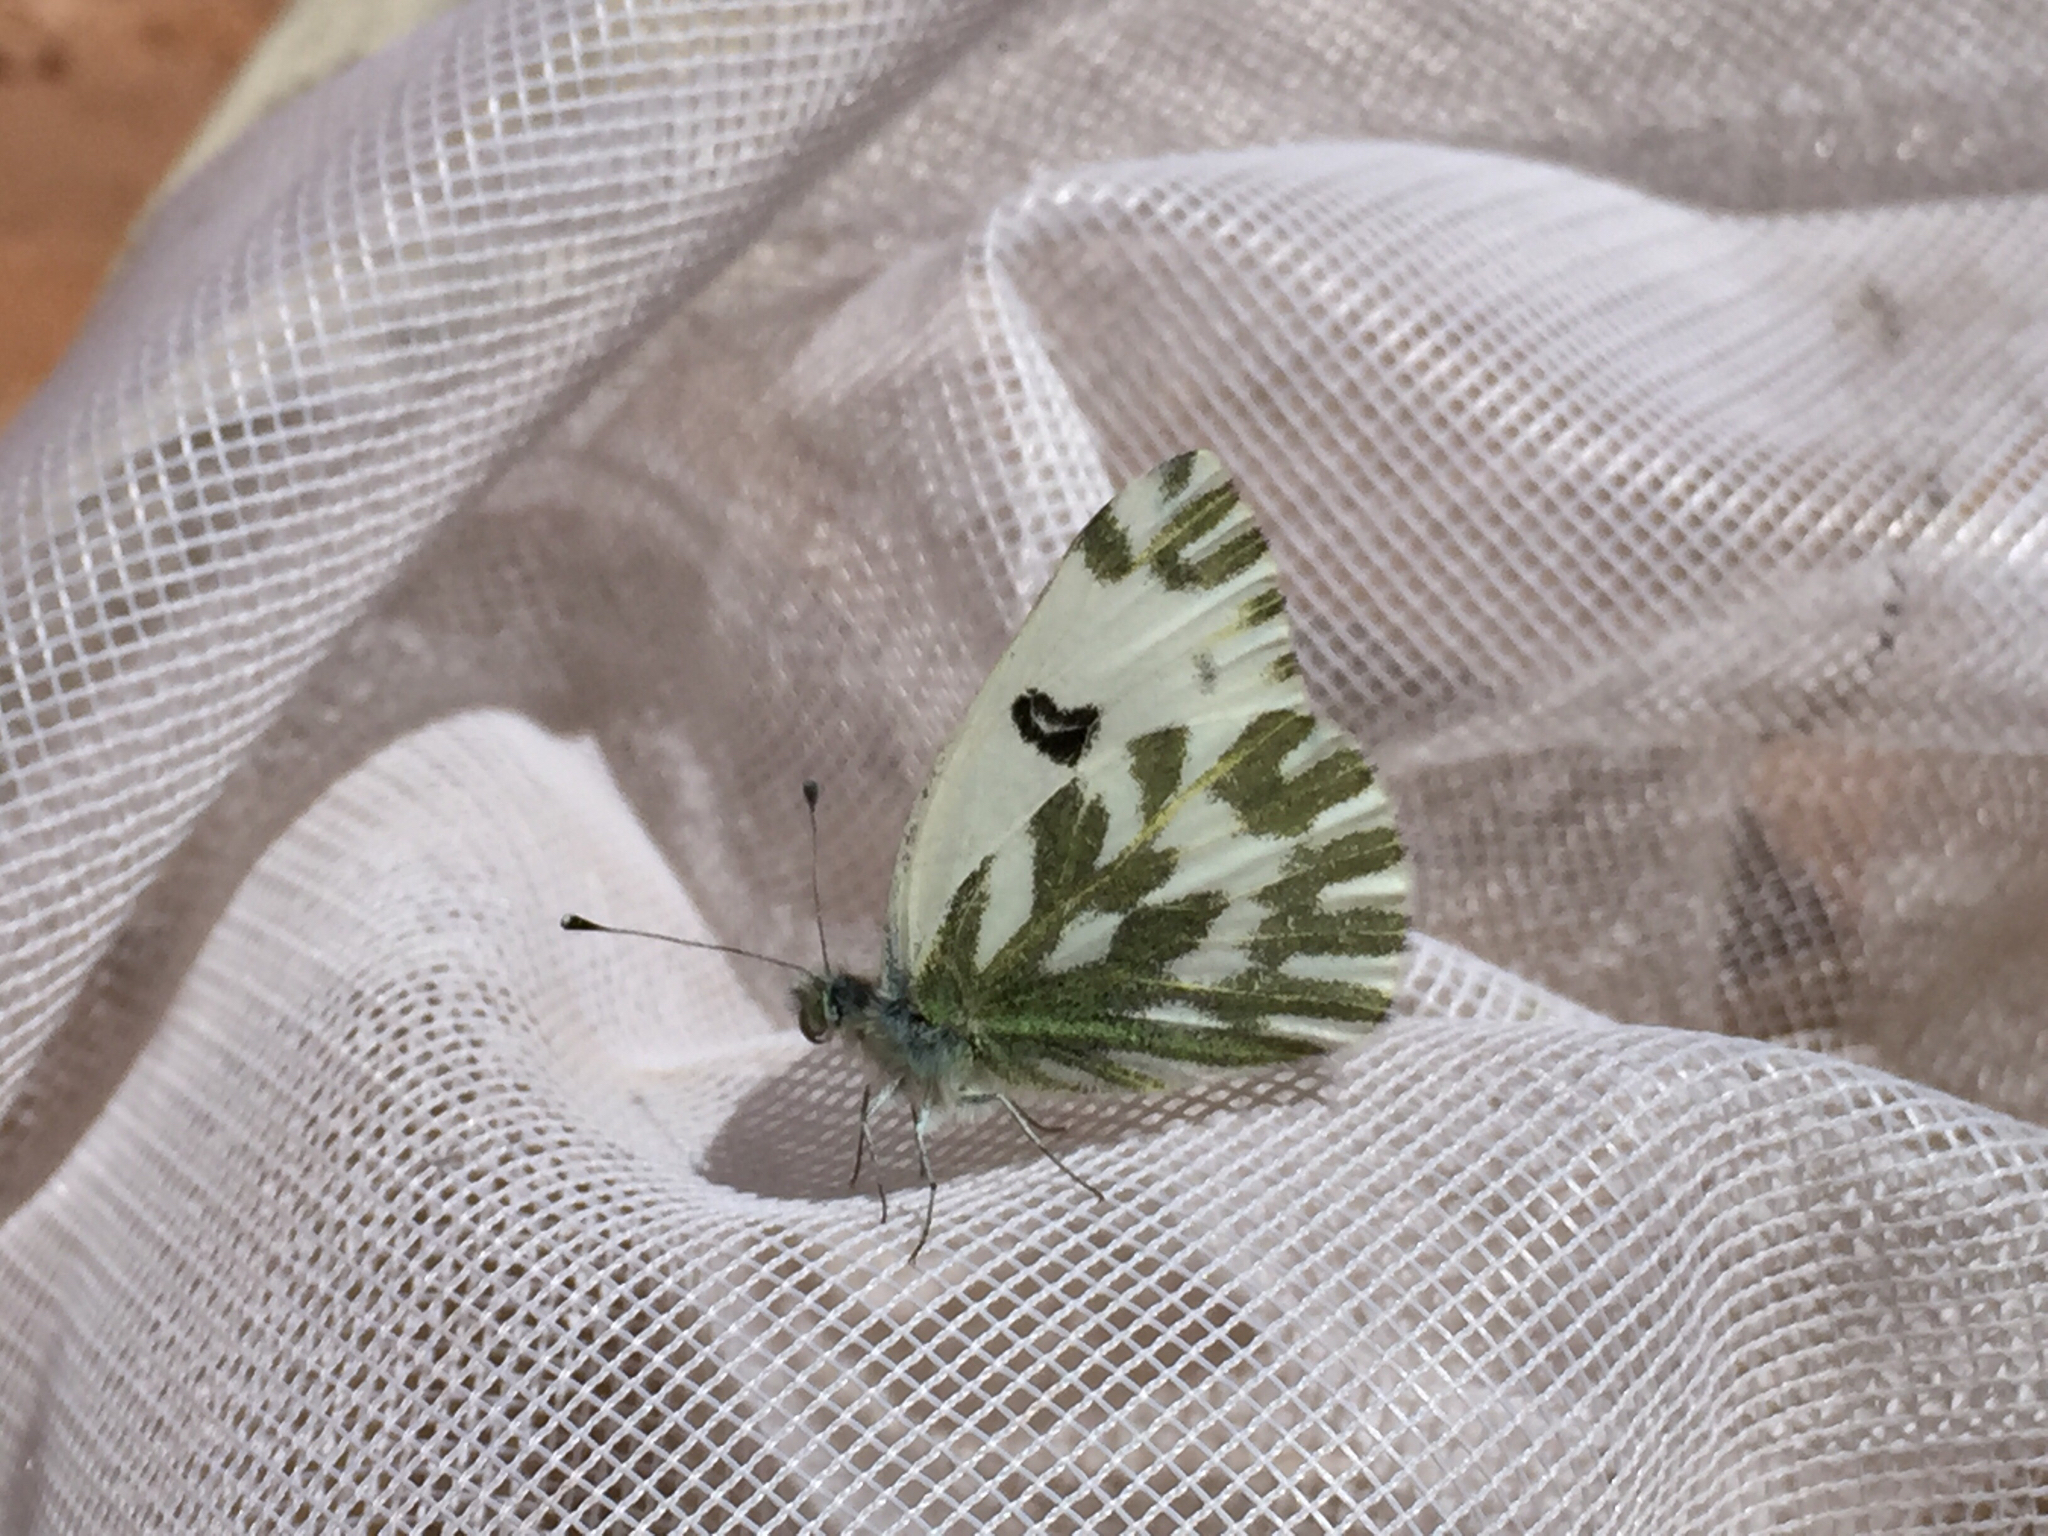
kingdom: Animalia
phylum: Arthropoda
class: Insecta
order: Lepidoptera
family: Pieridae
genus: Pontia
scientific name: Pontia beckerii
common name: Becker's white
